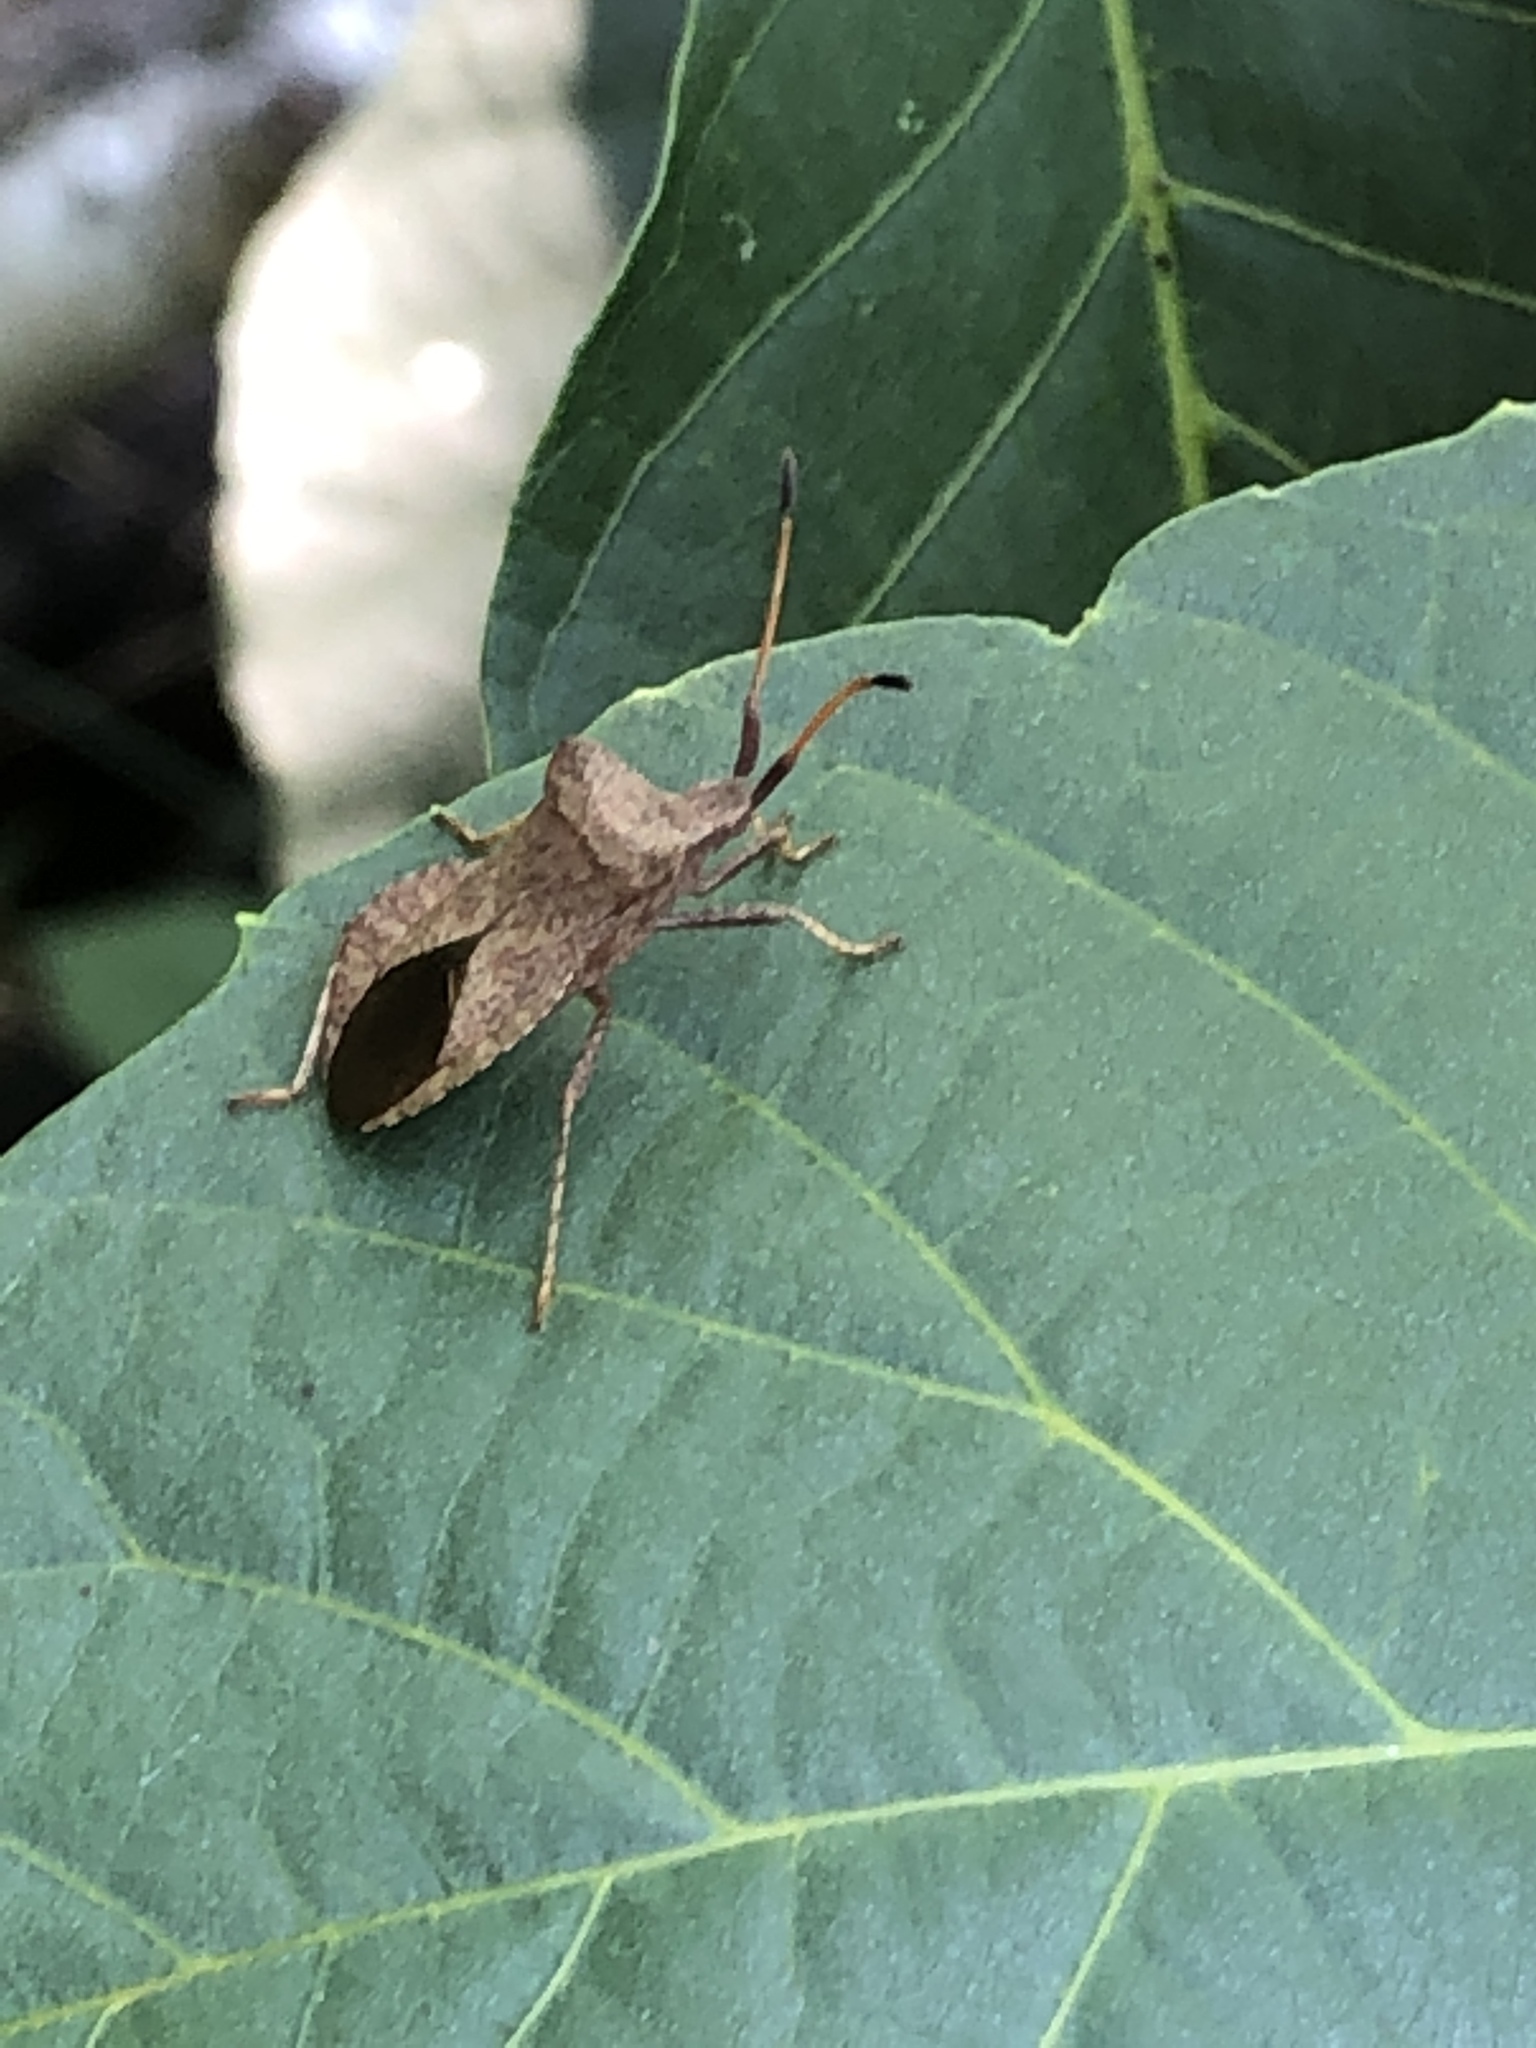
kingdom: Animalia
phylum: Arthropoda
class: Insecta
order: Hemiptera
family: Coreidae
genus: Coreus
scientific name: Coreus marginatus
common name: Dock bug
